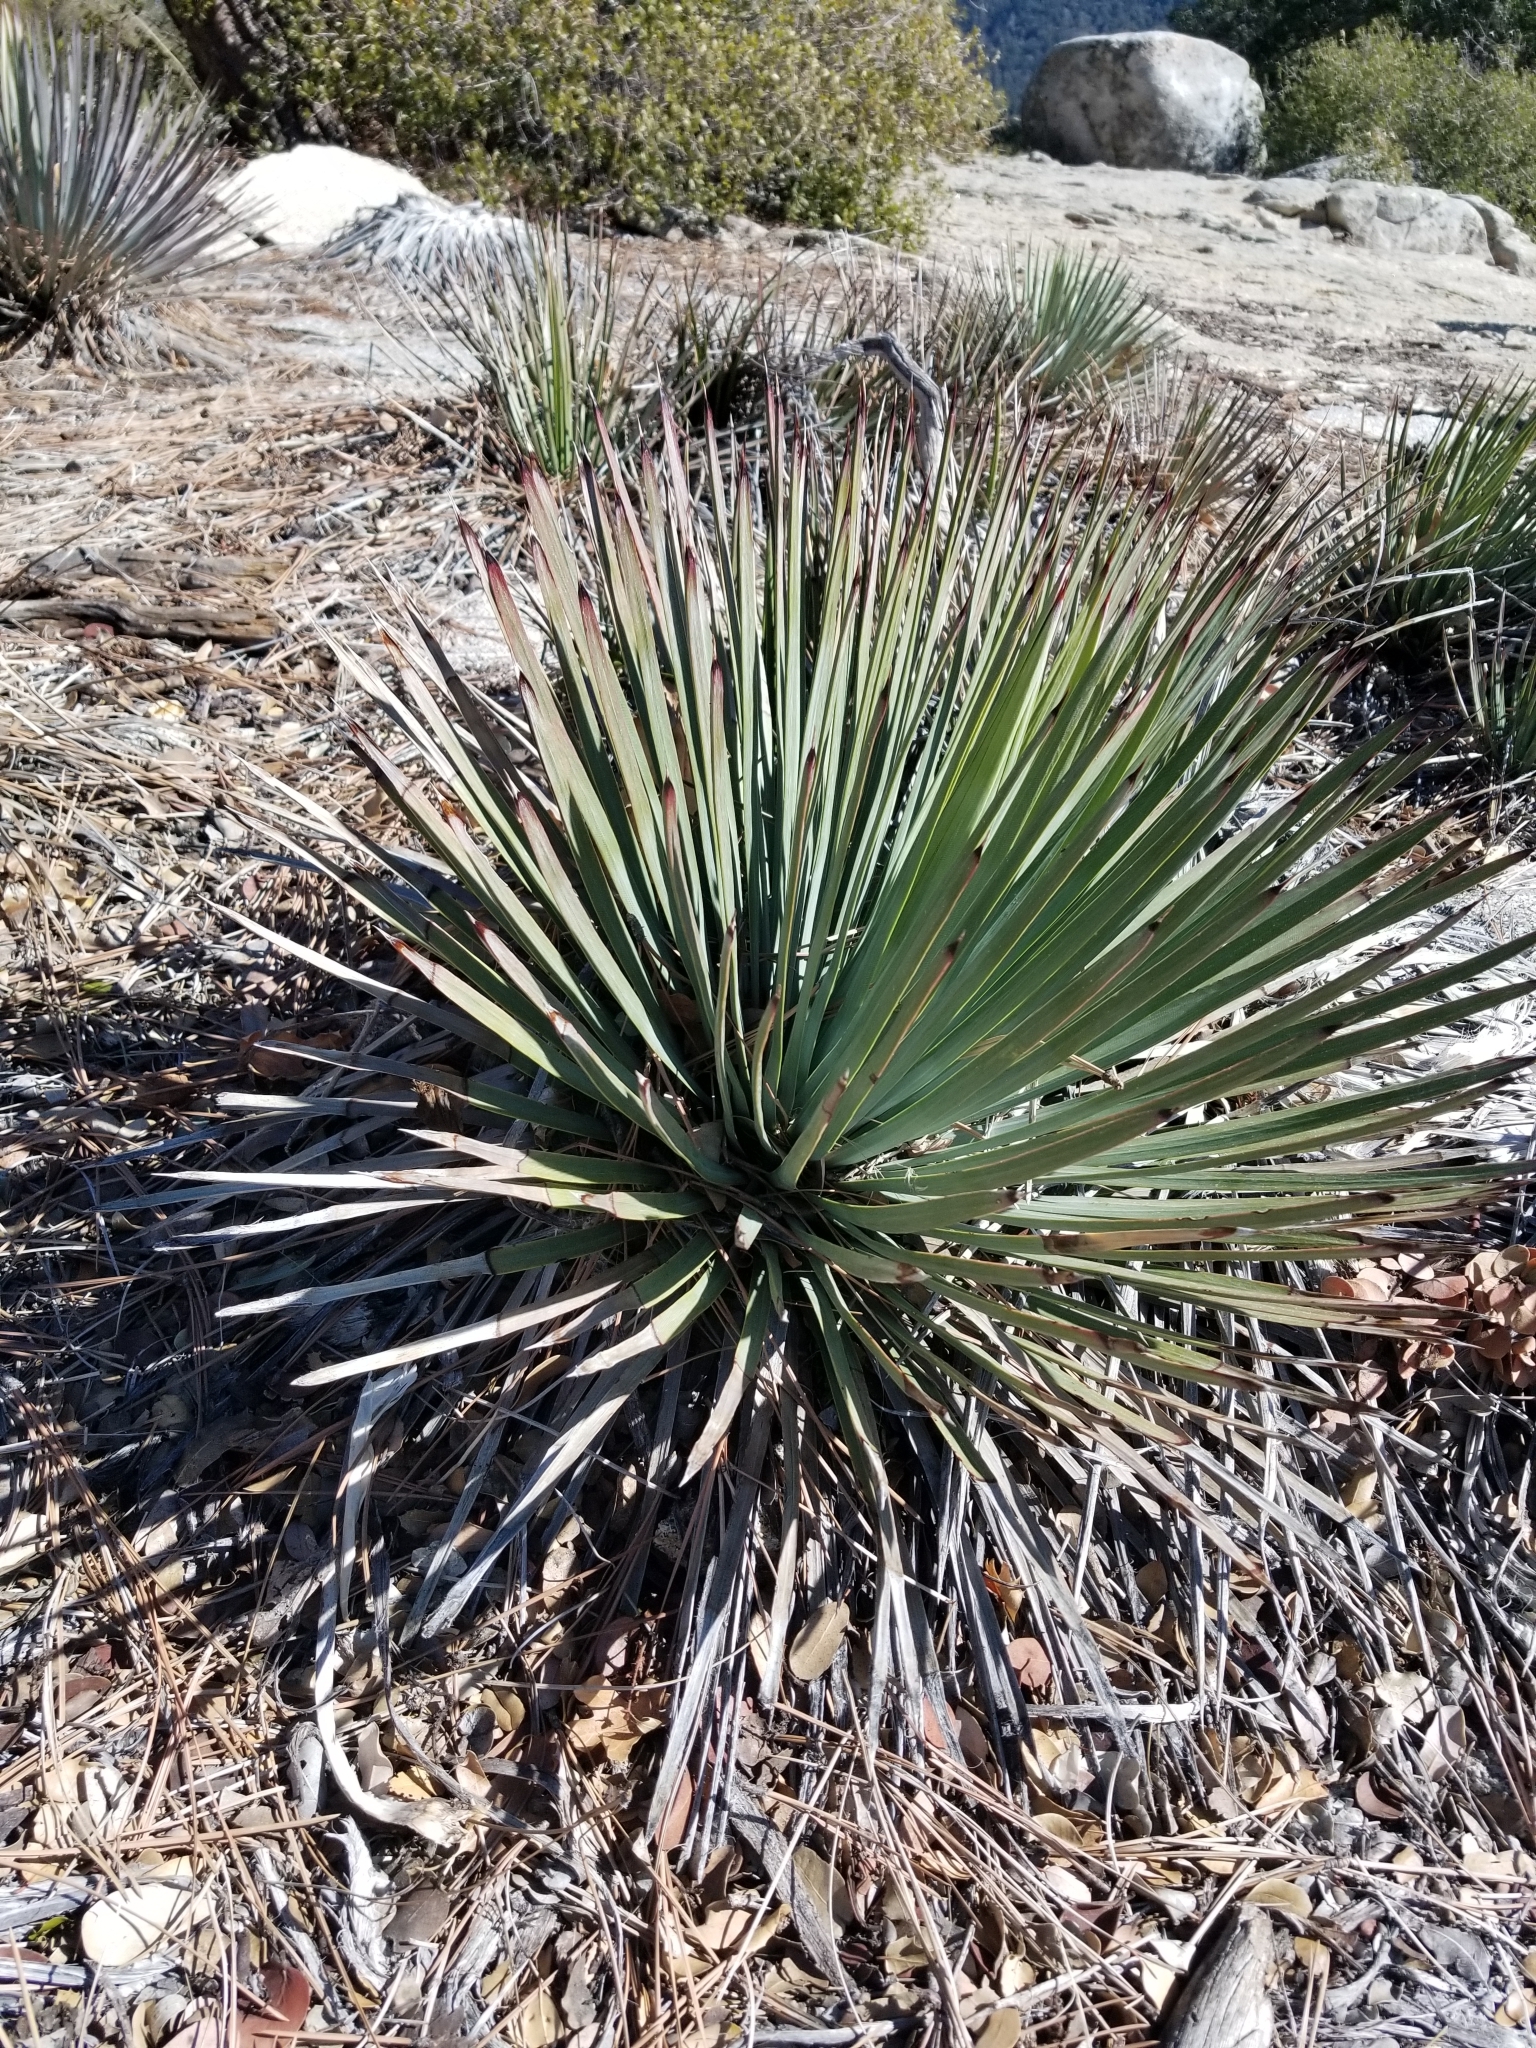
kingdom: Plantae
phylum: Tracheophyta
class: Liliopsida
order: Asparagales
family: Asparagaceae
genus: Hesperoyucca
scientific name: Hesperoyucca whipplei
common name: Our lord's-candle
